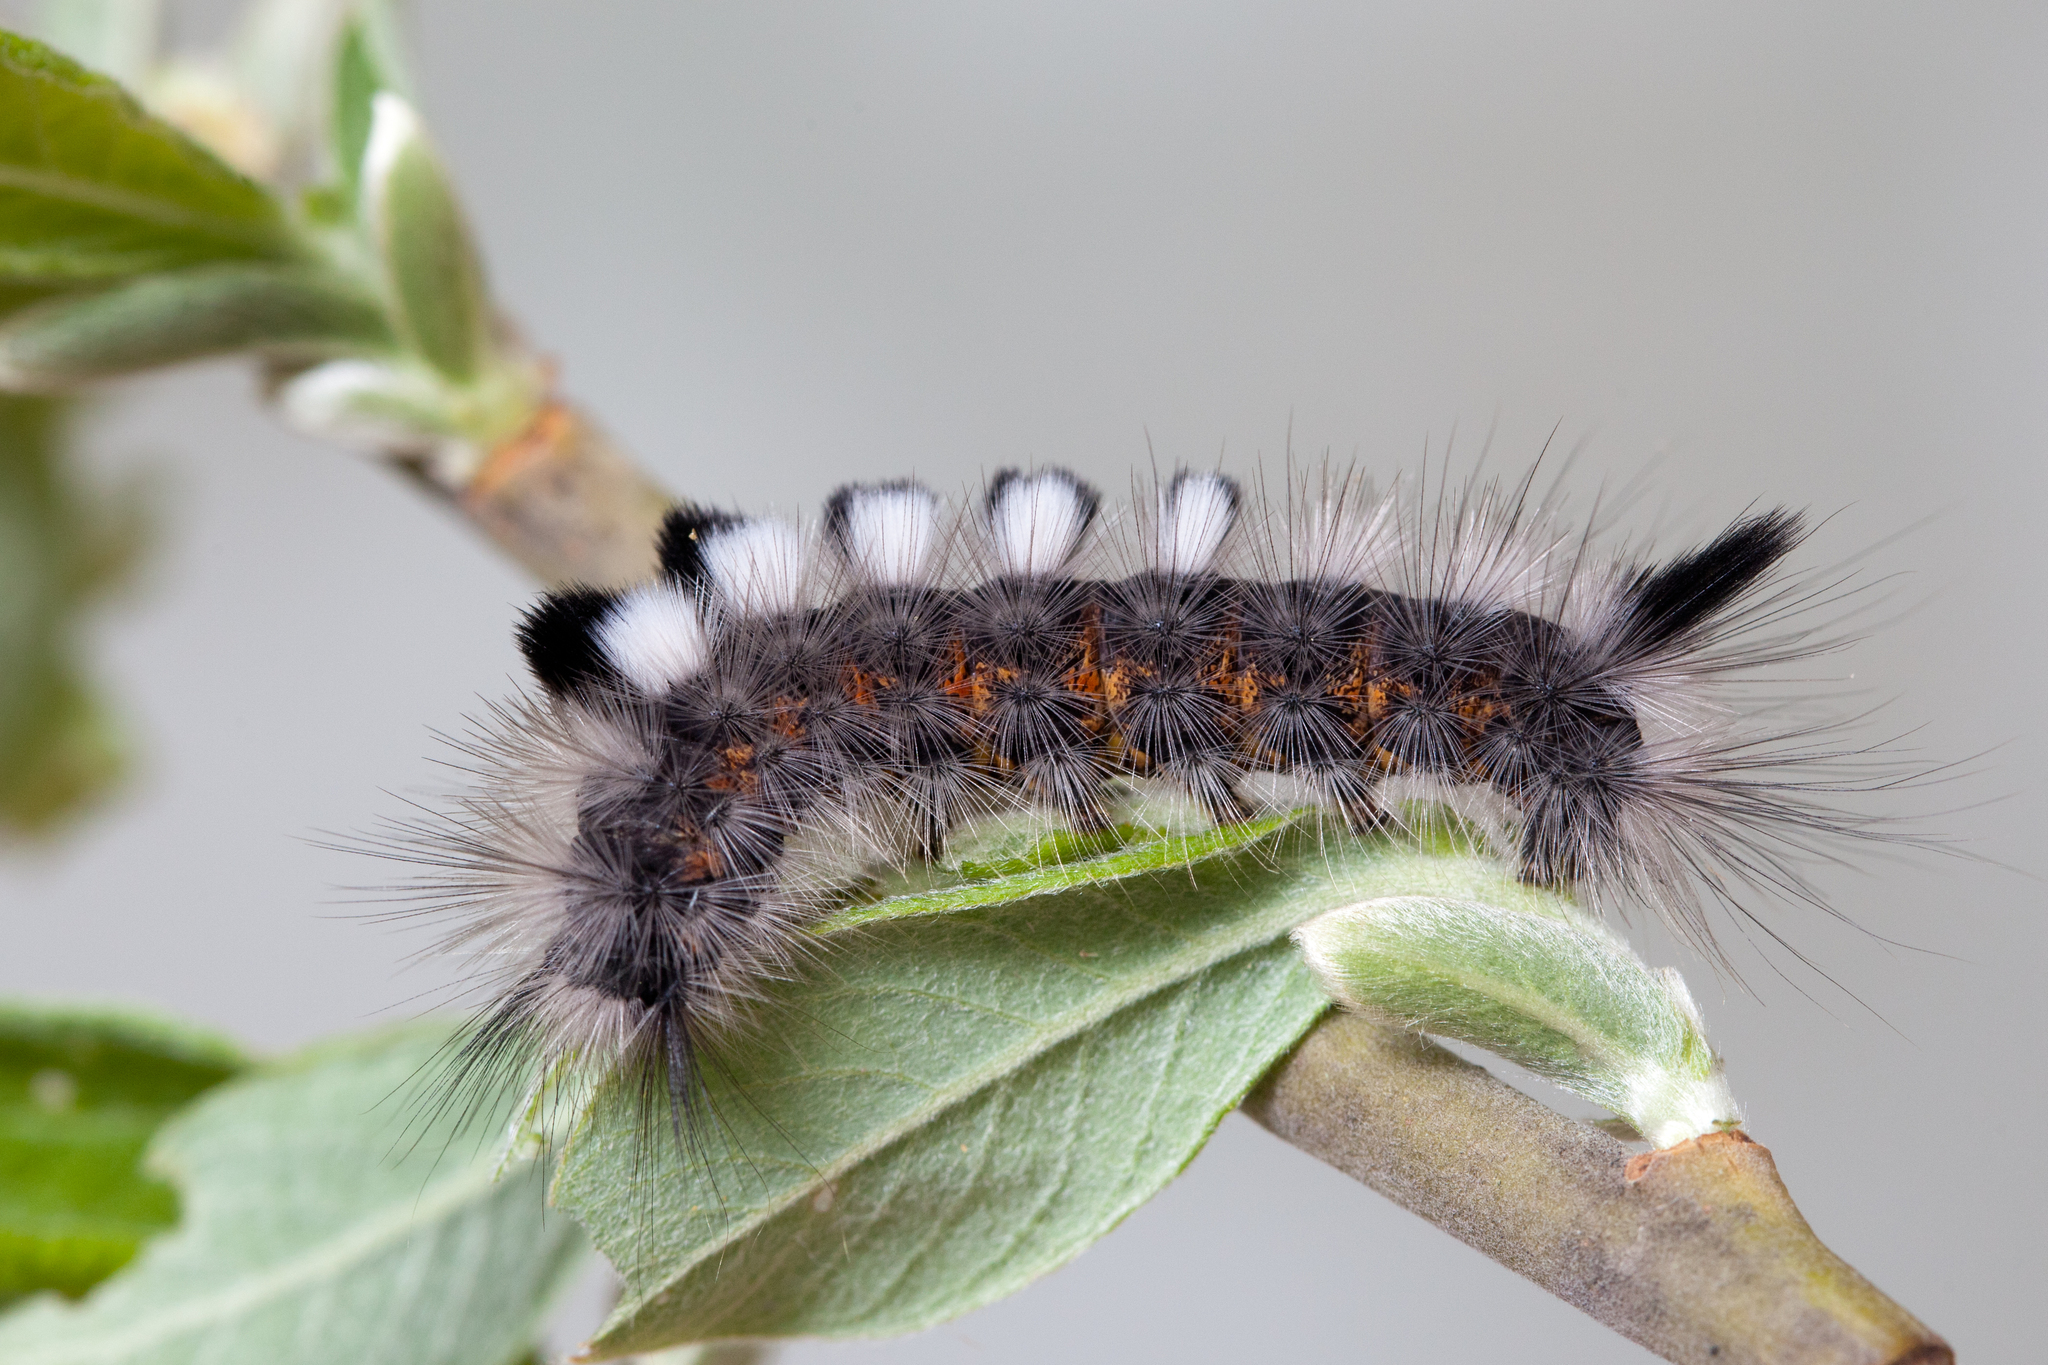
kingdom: Animalia
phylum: Arthropoda
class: Insecta
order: Lepidoptera
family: Erebidae
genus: Calliteara
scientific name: Calliteara Dicallomera fascelina
